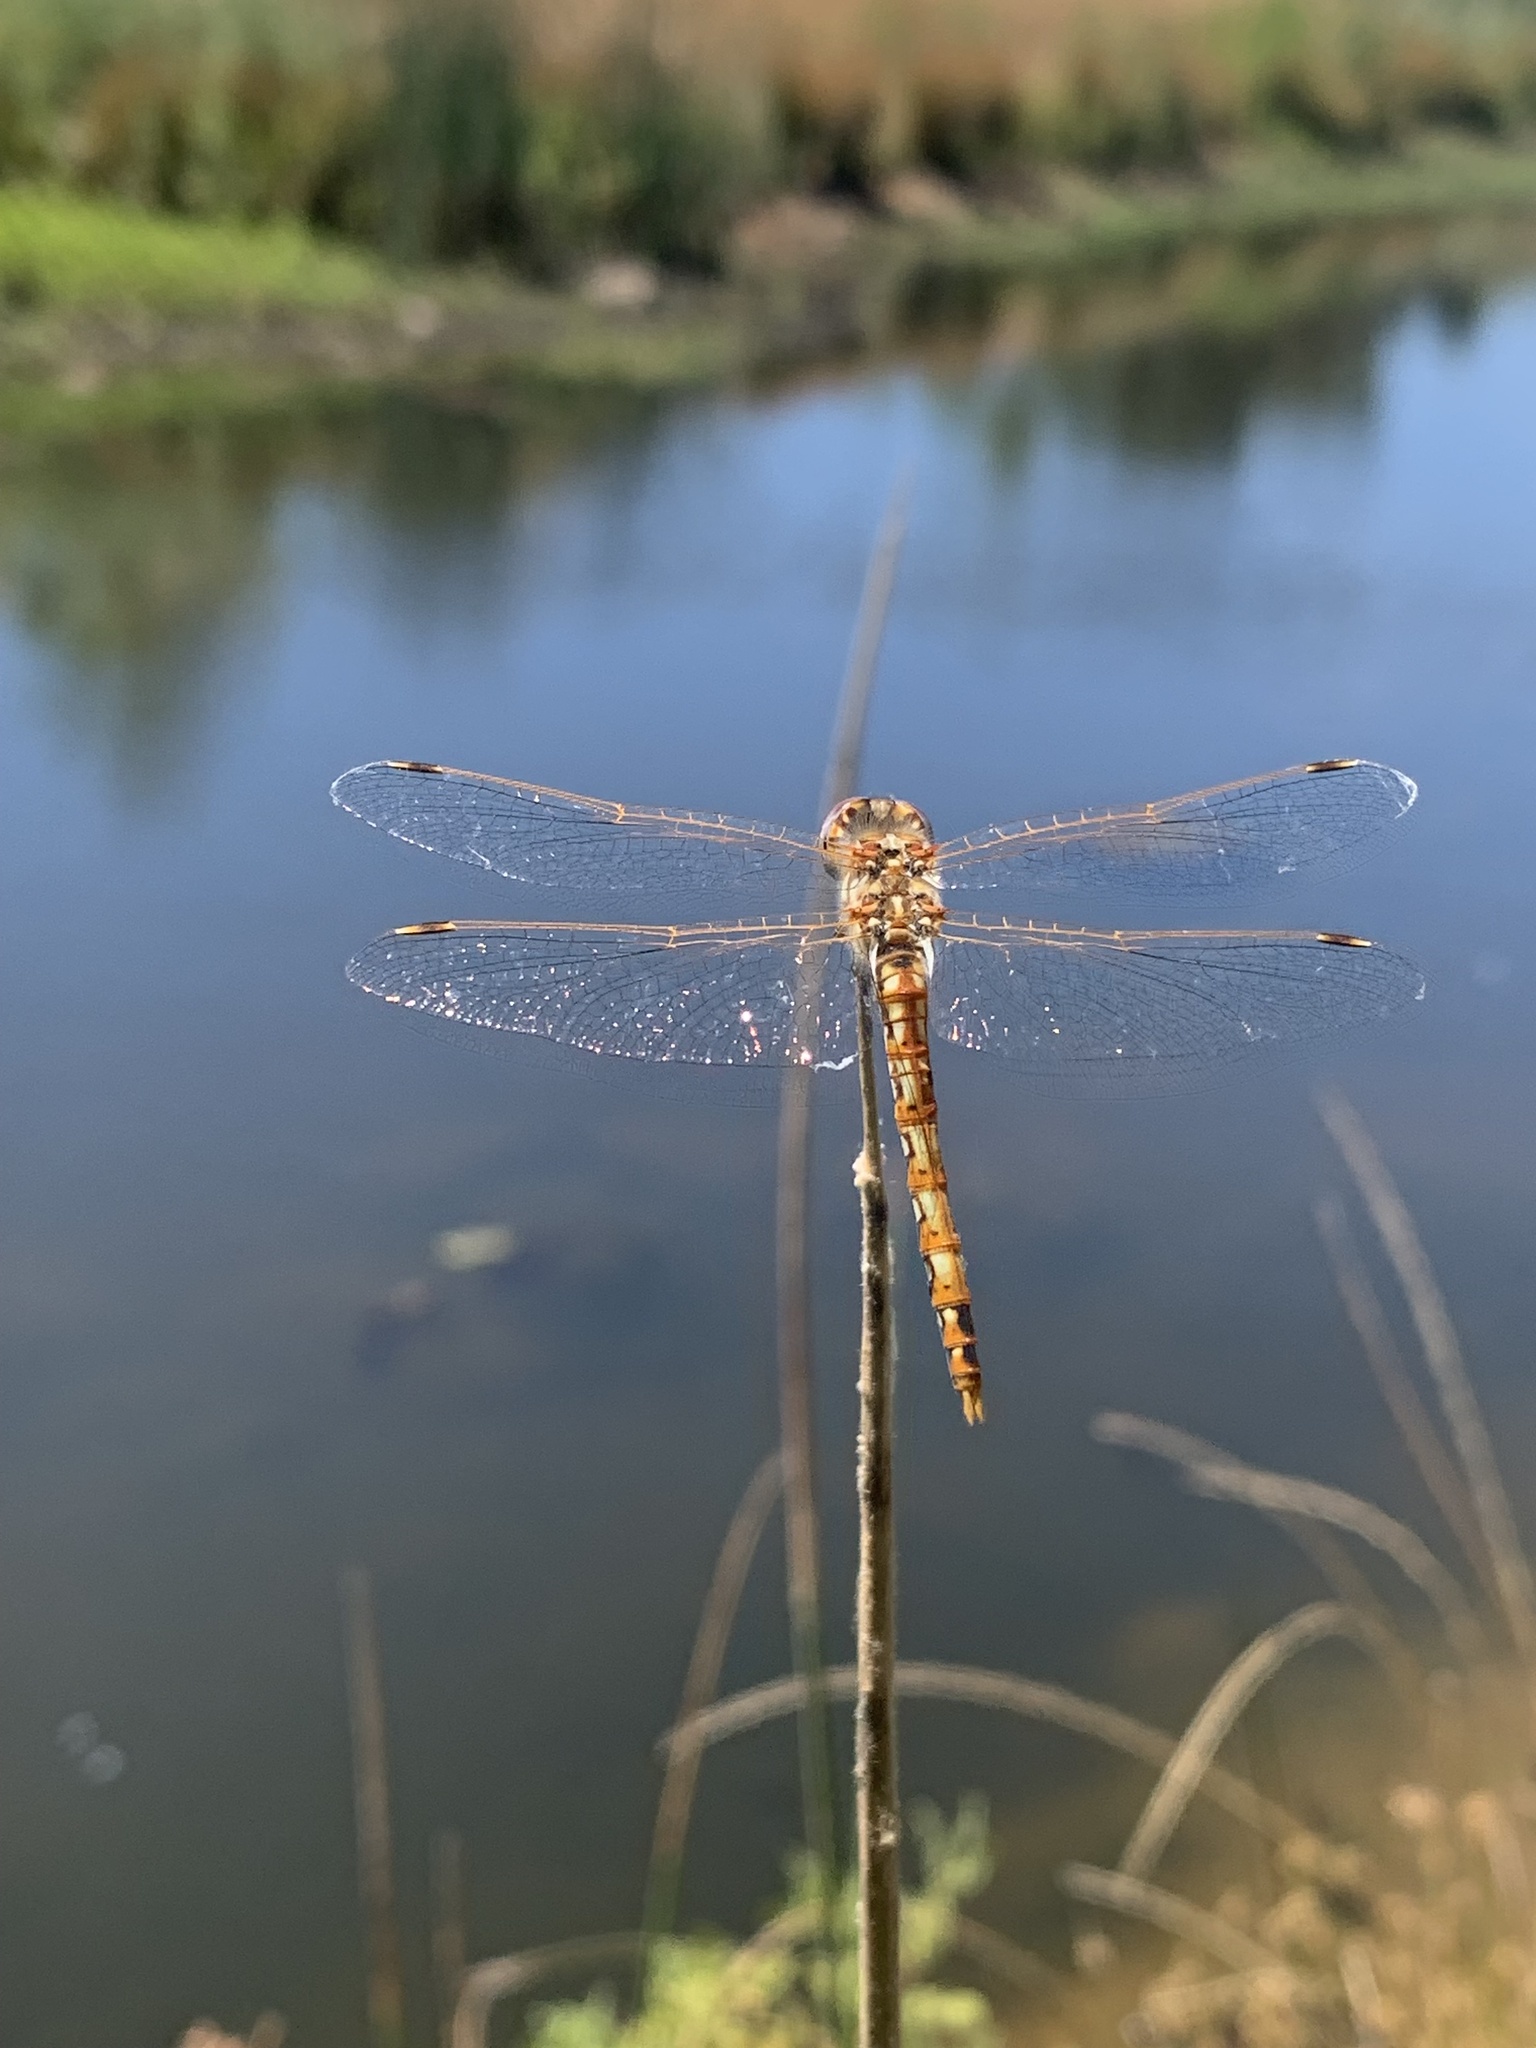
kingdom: Animalia
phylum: Arthropoda
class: Insecta
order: Odonata
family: Libellulidae
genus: Sympetrum
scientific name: Sympetrum corruptum
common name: Variegated meadowhawk
